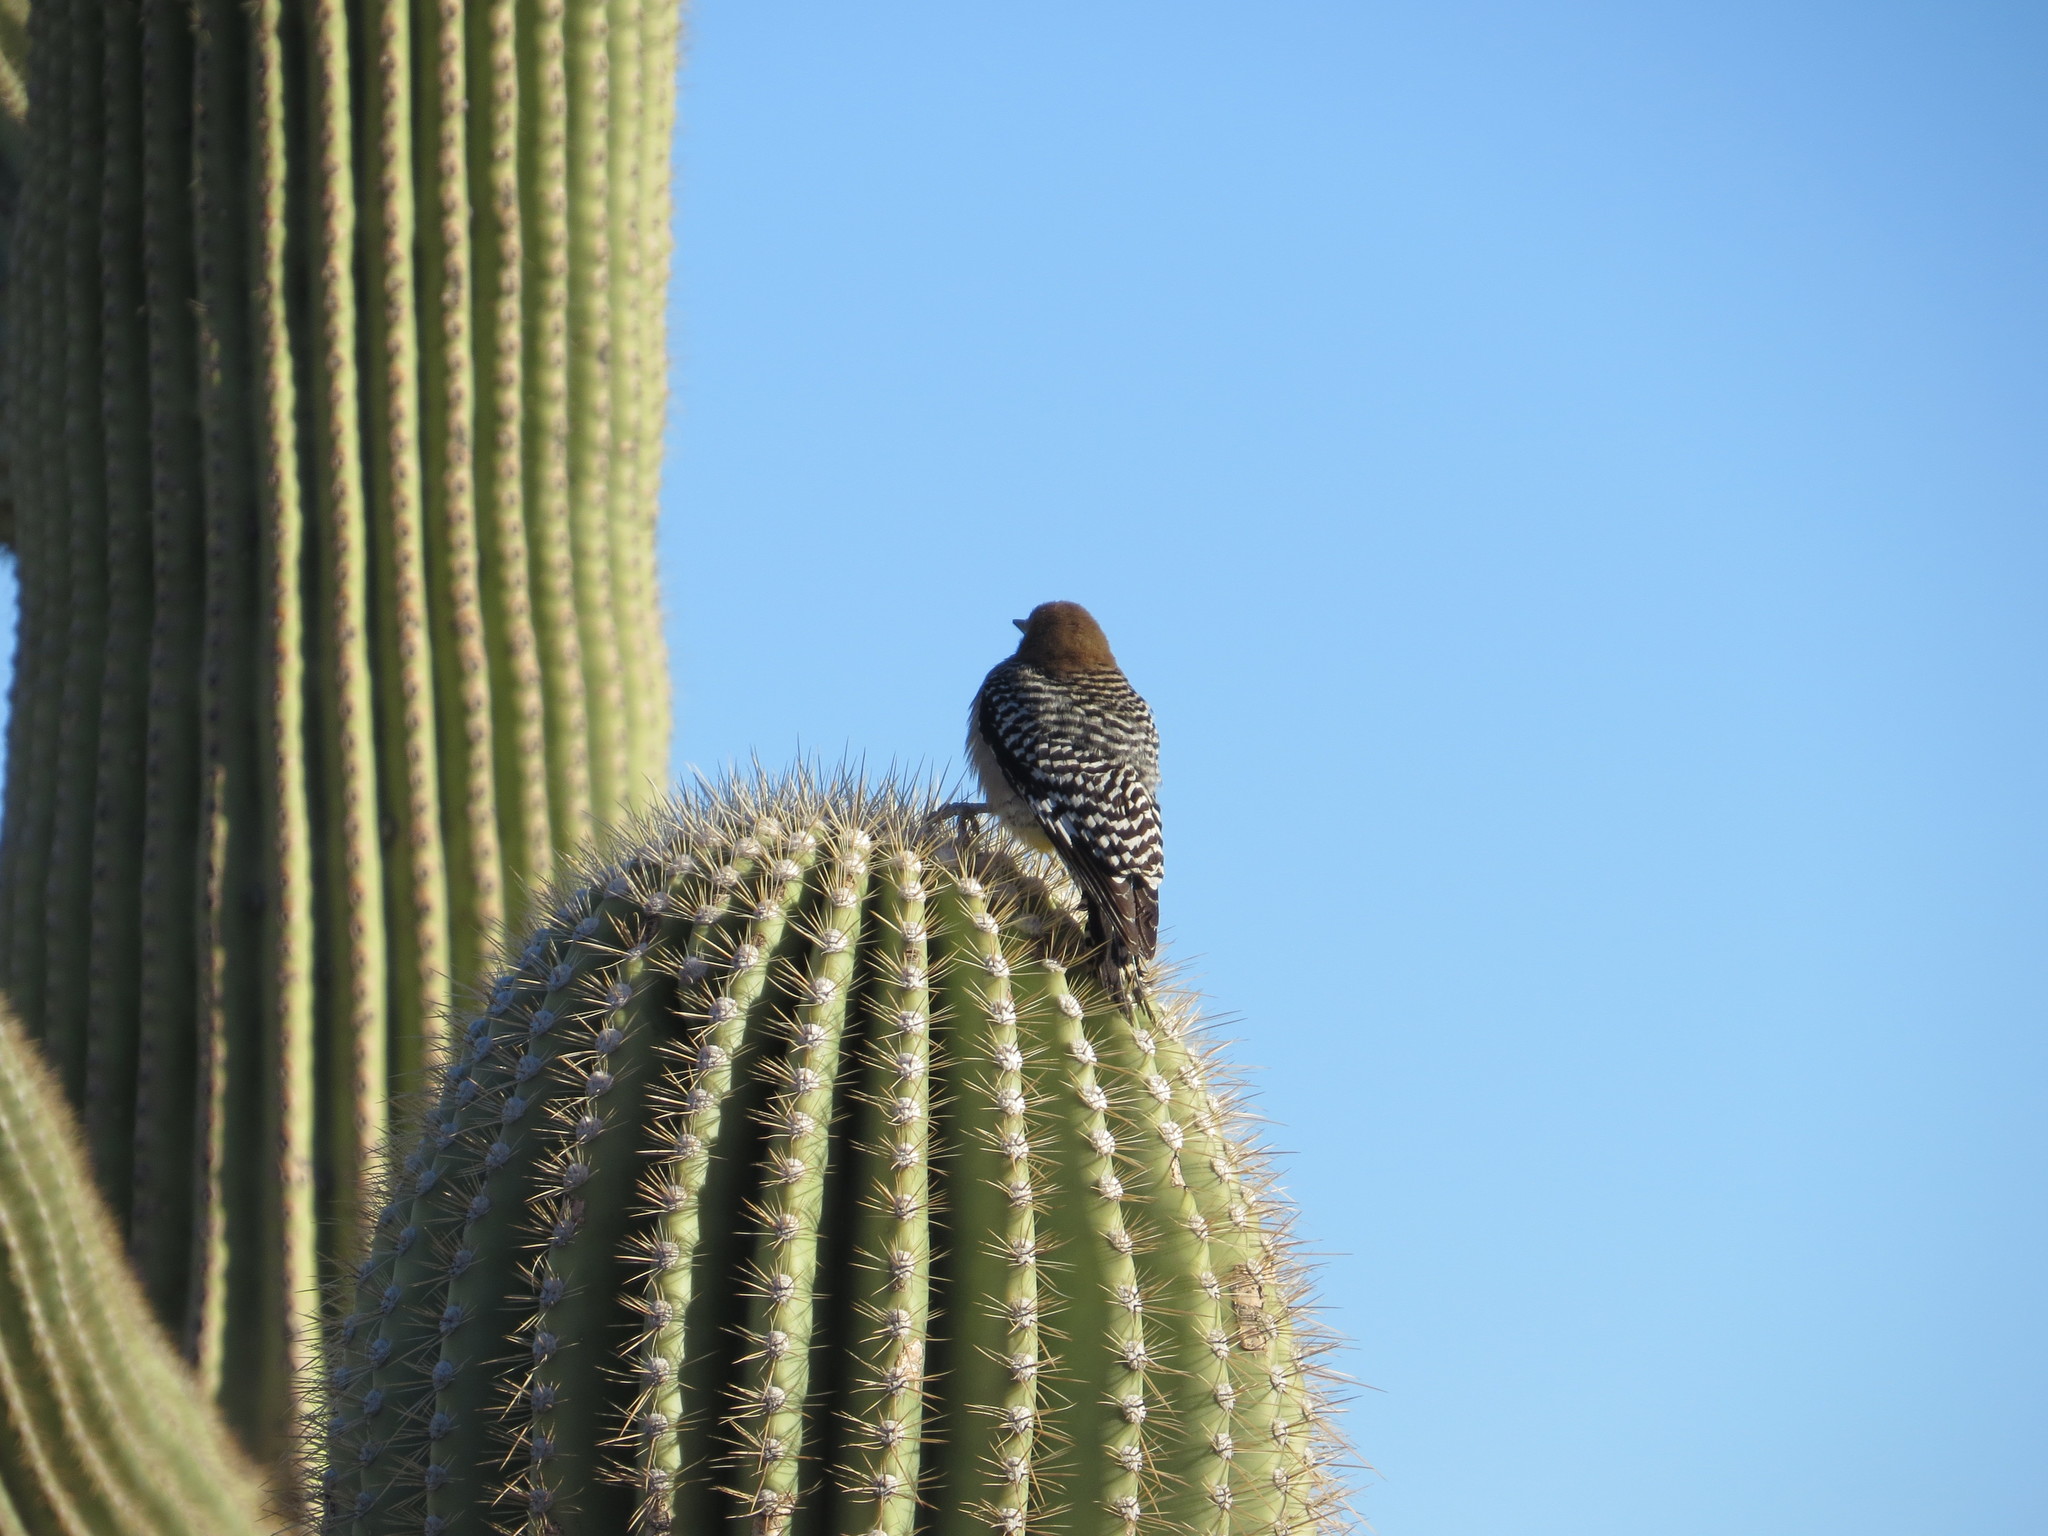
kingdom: Animalia
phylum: Chordata
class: Aves
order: Piciformes
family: Picidae
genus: Melanerpes
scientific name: Melanerpes uropygialis
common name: Gila woodpecker
